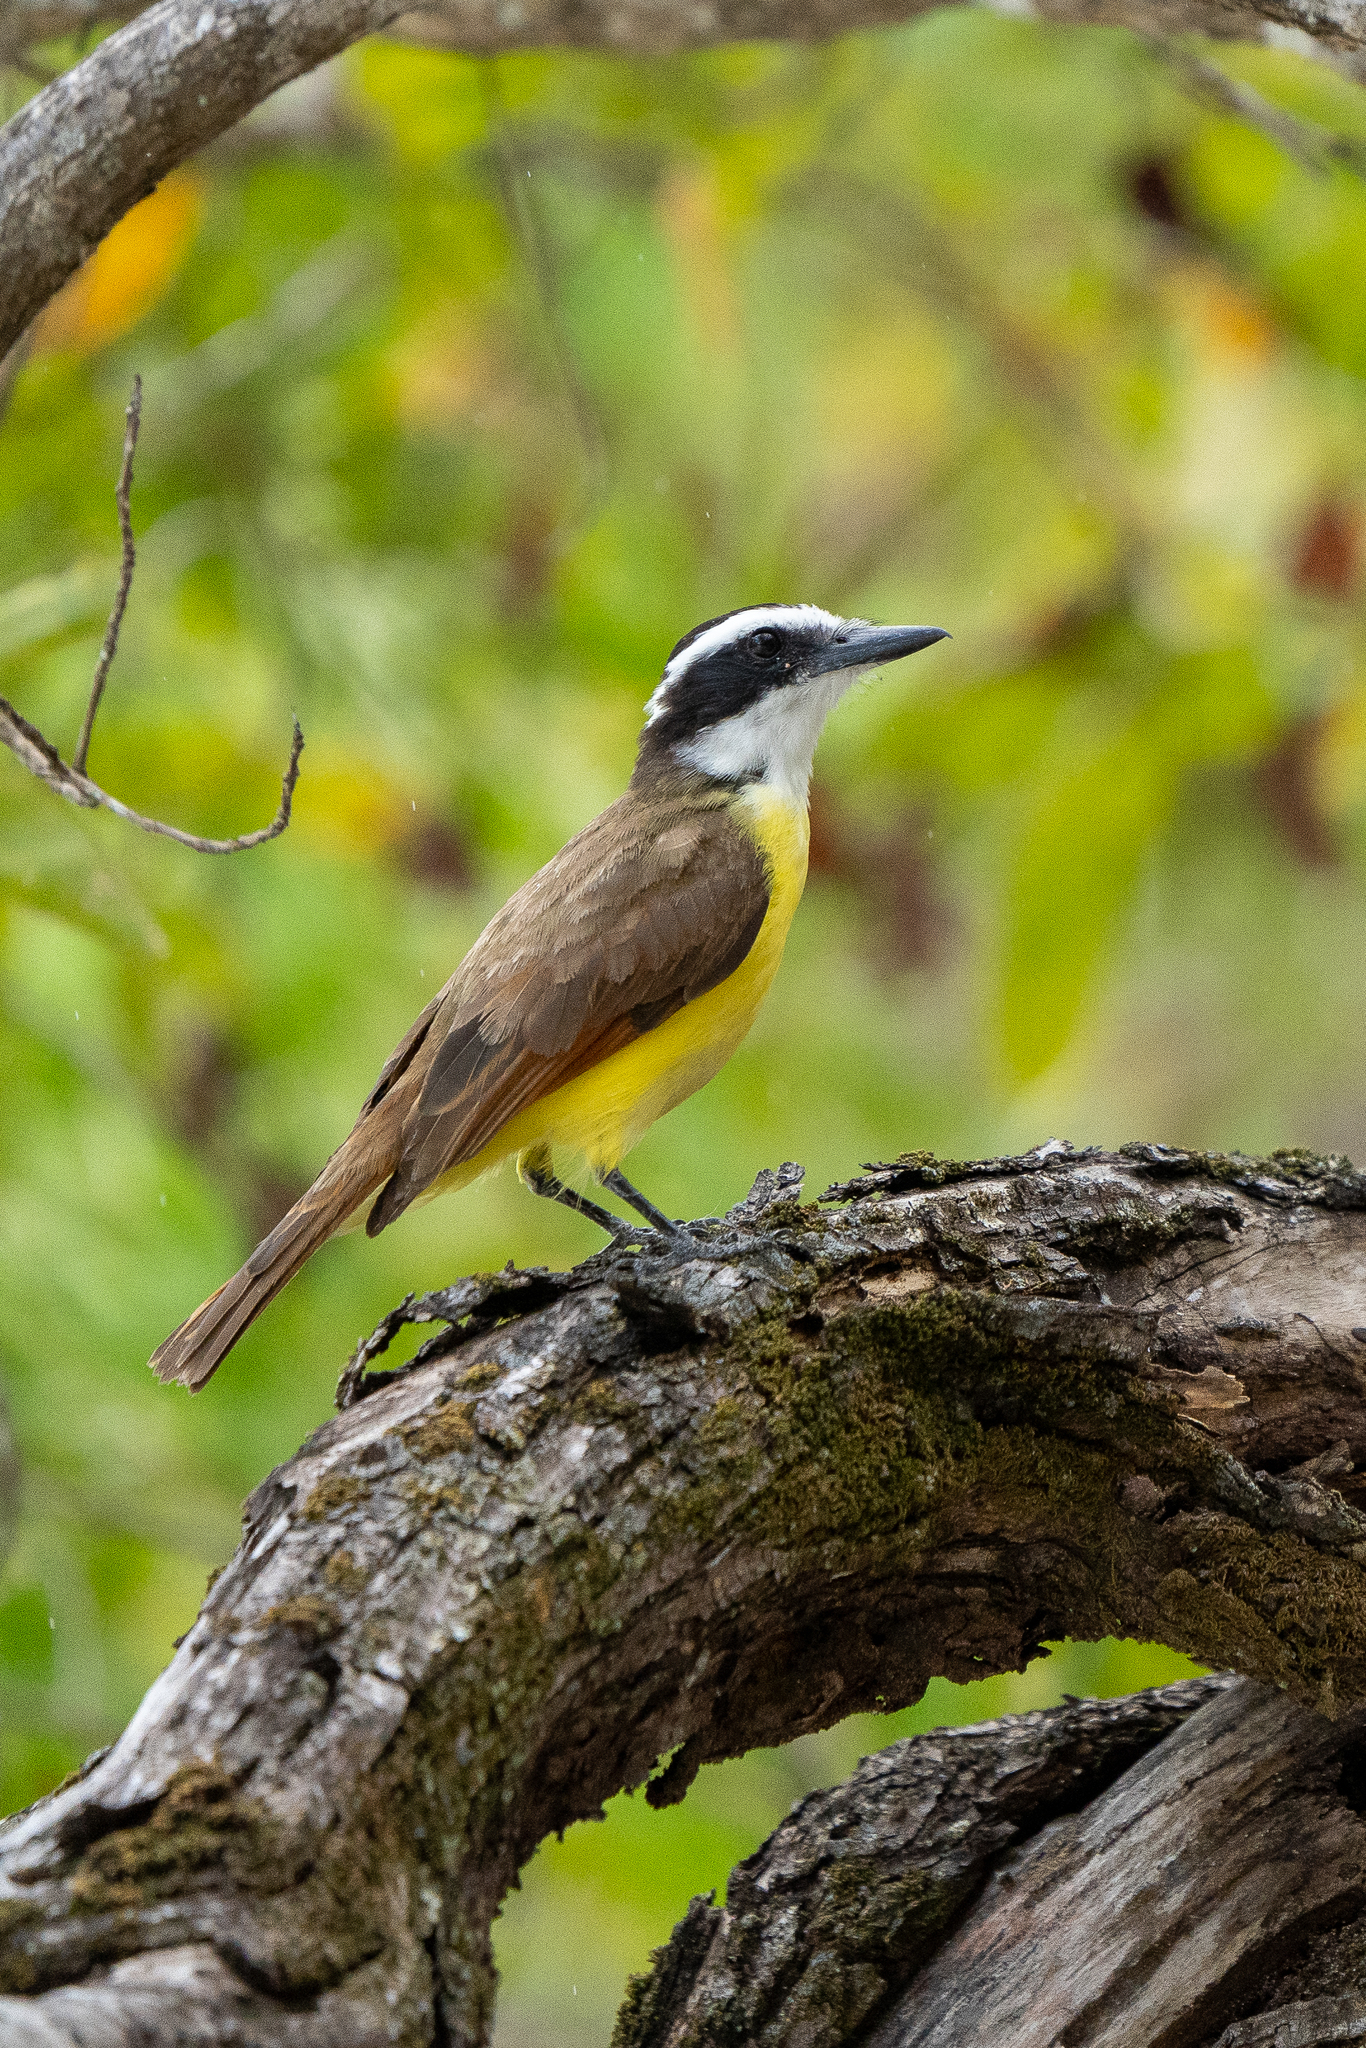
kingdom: Animalia
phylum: Chordata
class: Aves
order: Passeriformes
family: Tyrannidae
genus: Pitangus
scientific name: Pitangus sulphuratus
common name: Great kiskadee
